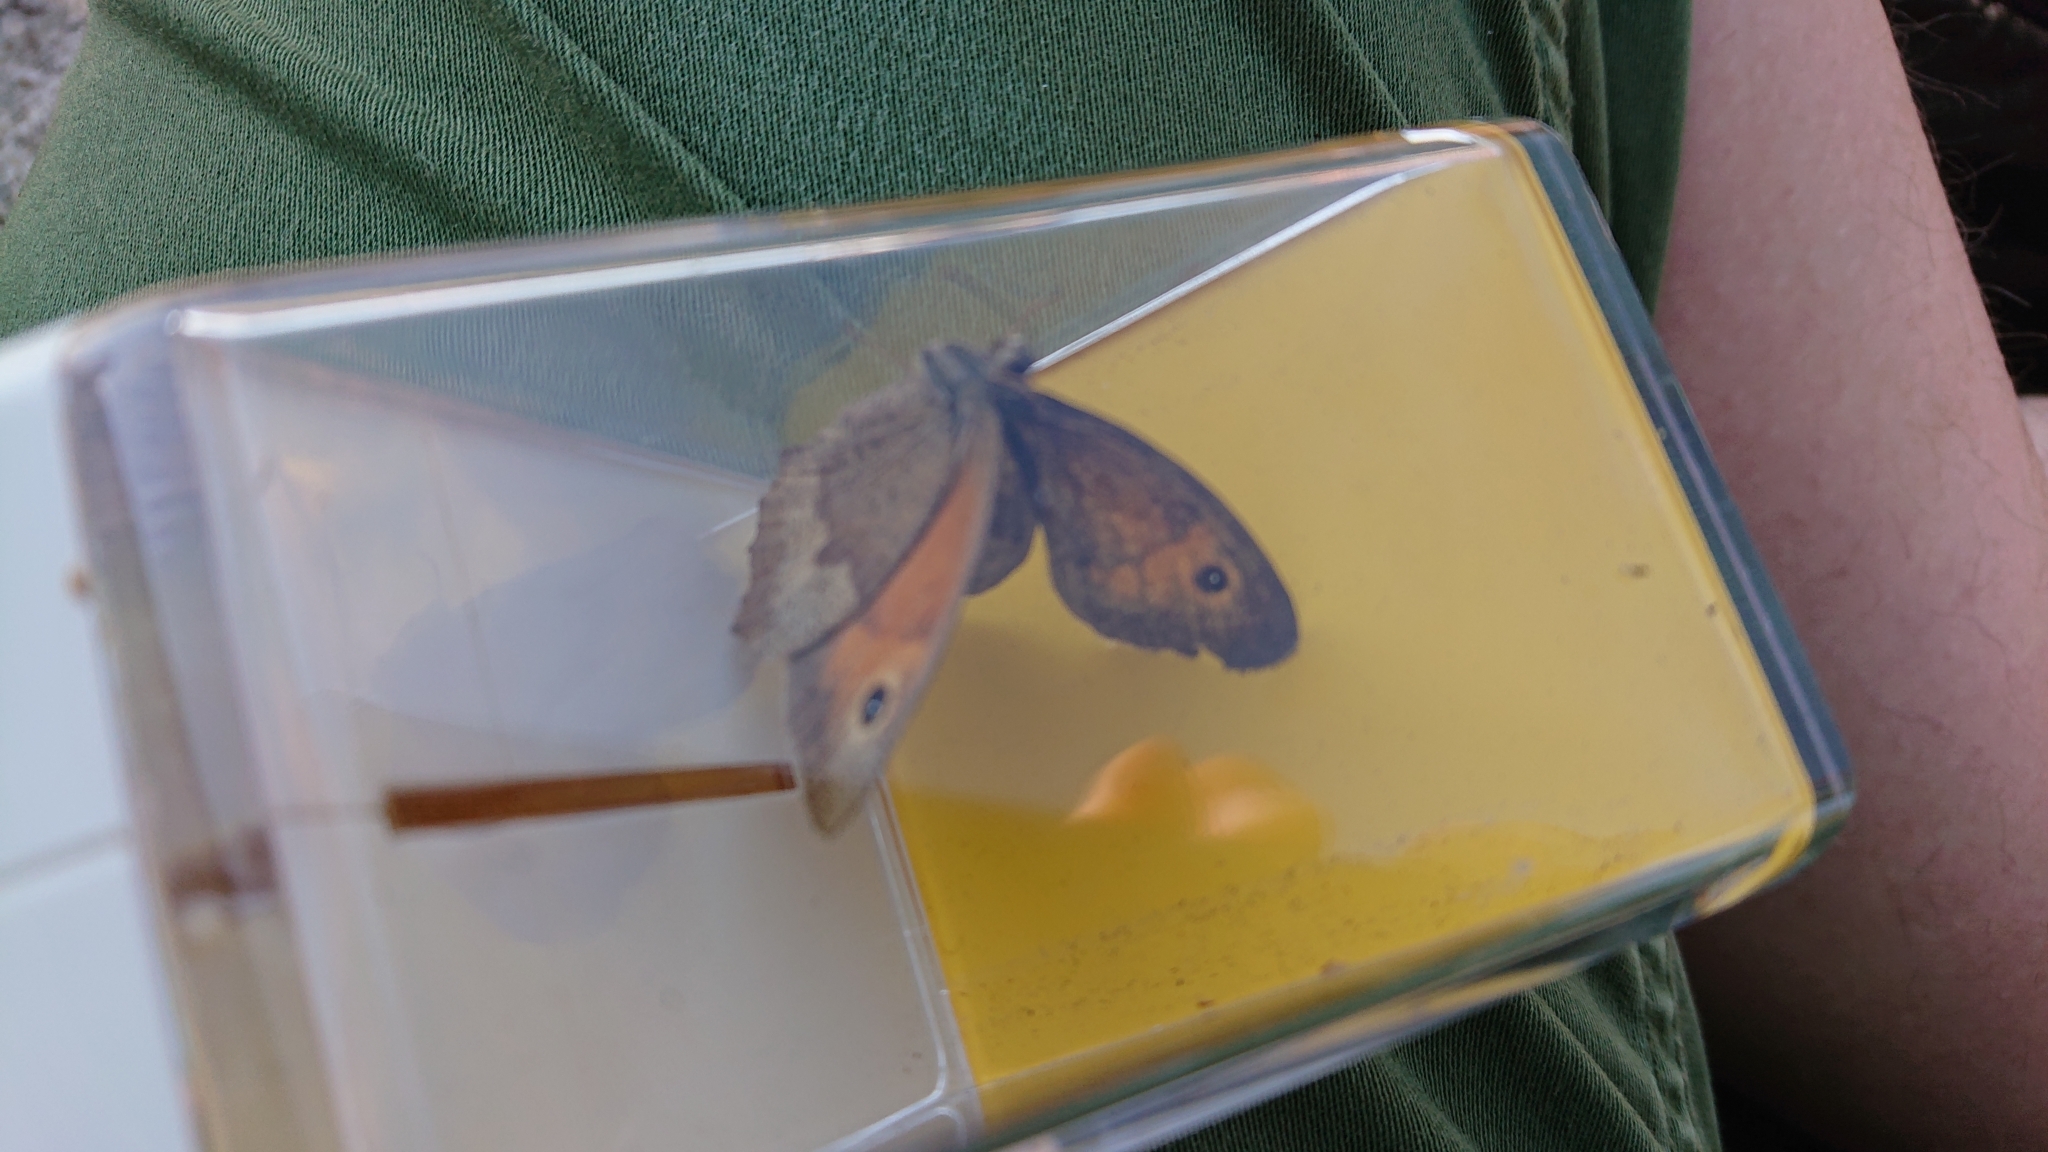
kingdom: Animalia
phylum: Arthropoda
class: Insecta
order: Lepidoptera
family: Nymphalidae
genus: Maniola
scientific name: Maniola jurtina
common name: Meadow brown
